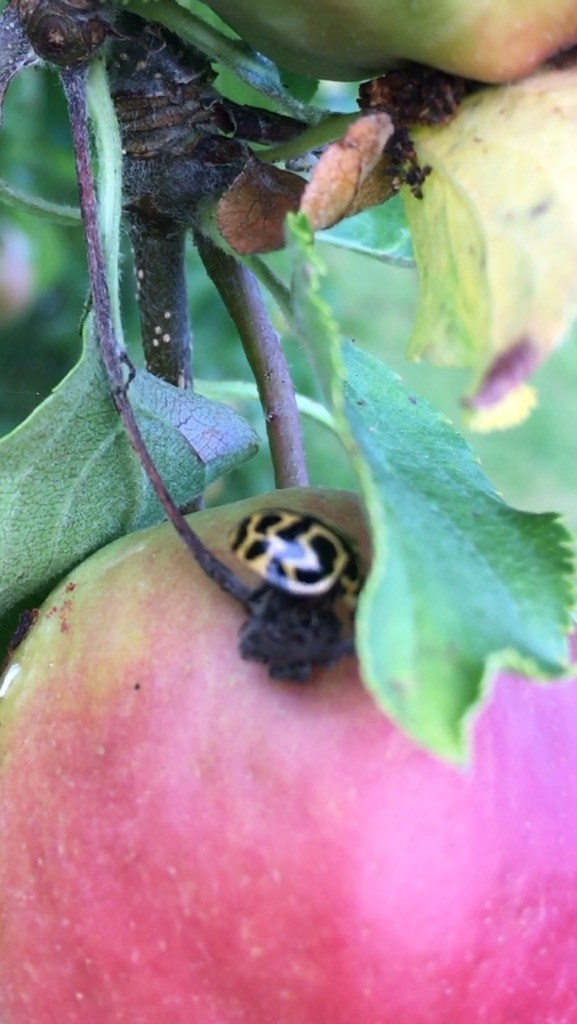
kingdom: Animalia
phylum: Arthropoda
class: Insecta
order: Coleoptera
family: Coccinellidae
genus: Cleobora
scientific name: Cleobora
